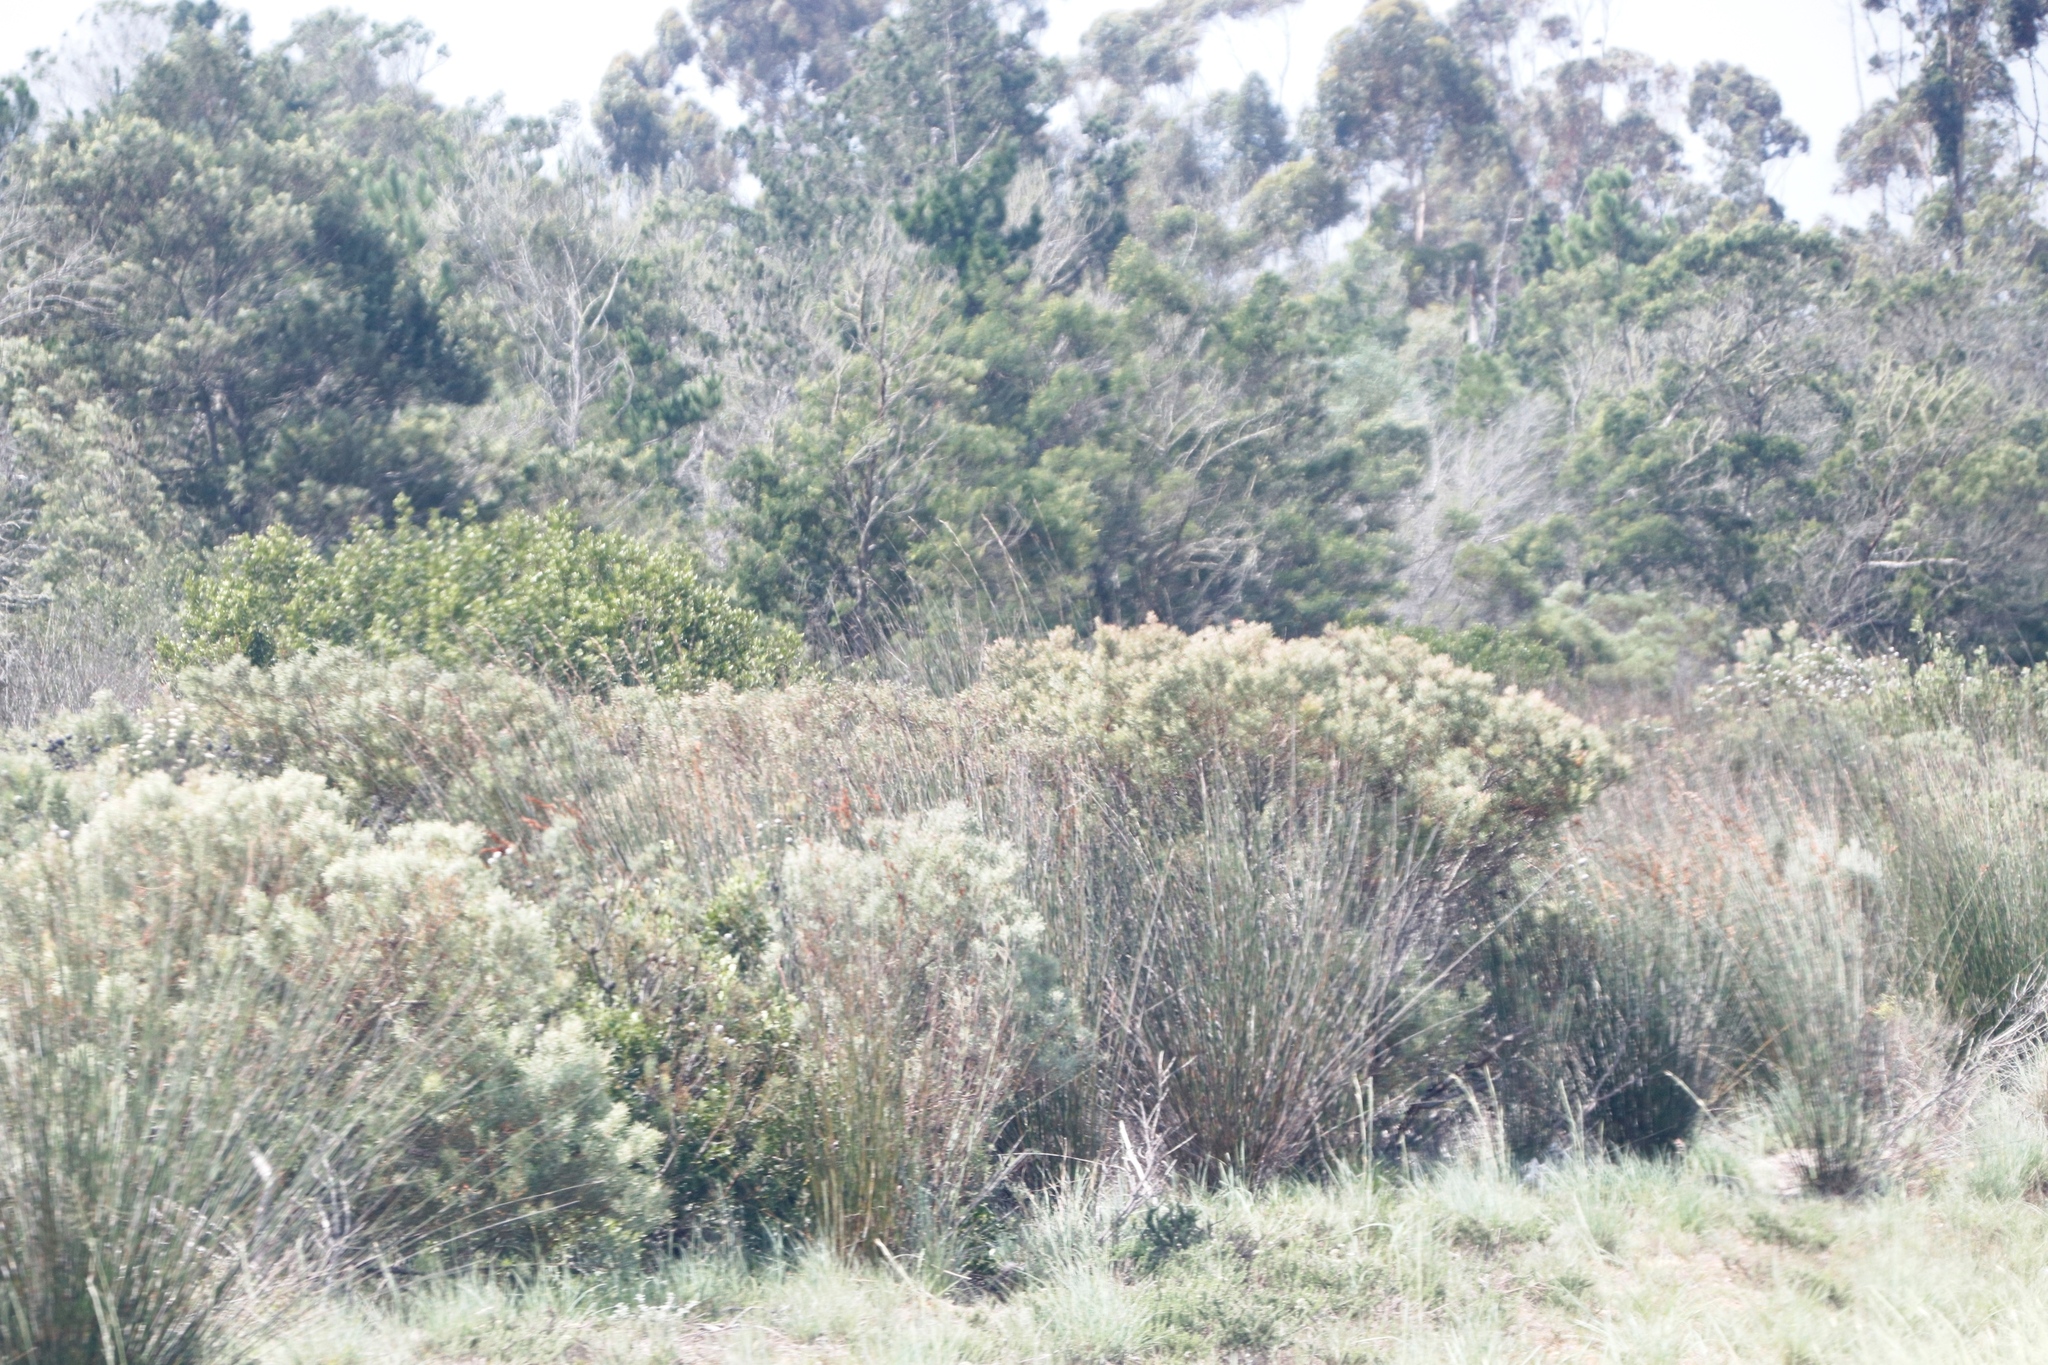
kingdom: Plantae
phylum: Tracheophyta
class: Magnoliopsida
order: Proteales
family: Proteaceae
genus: Leucadendron
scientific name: Leucadendron galpinii
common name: Hairless conebush
